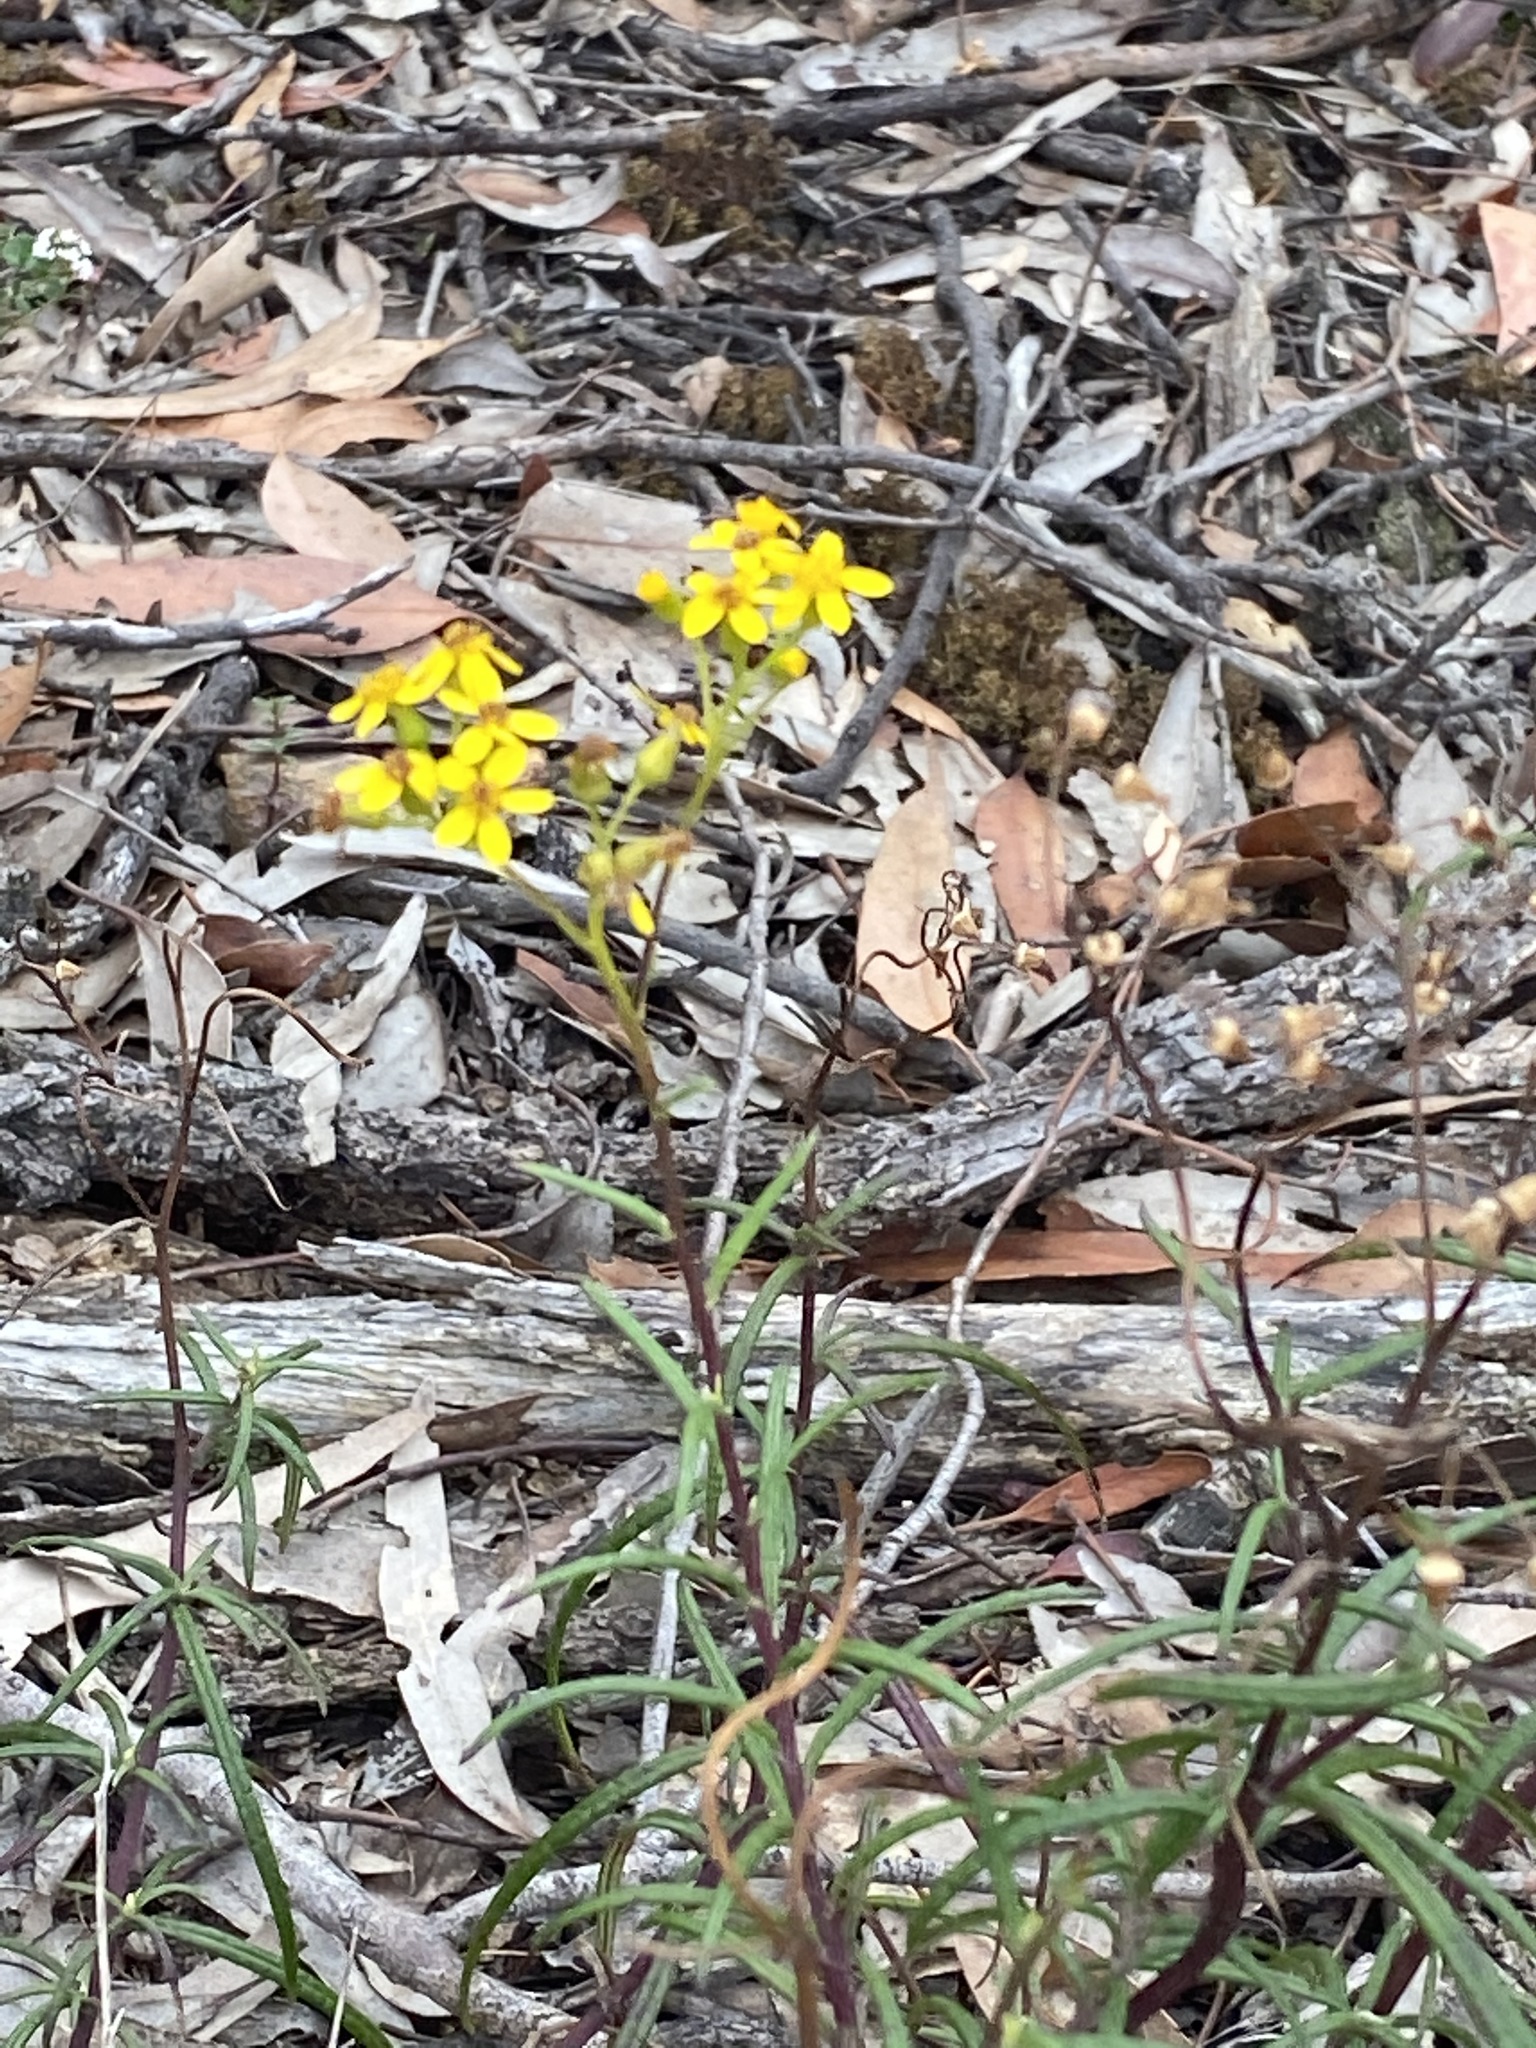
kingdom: Plantae
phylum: Tracheophyta
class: Magnoliopsida
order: Asterales
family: Asteraceae
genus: Senecio
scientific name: Senecio linearifolius
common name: Fireweed groundsel
